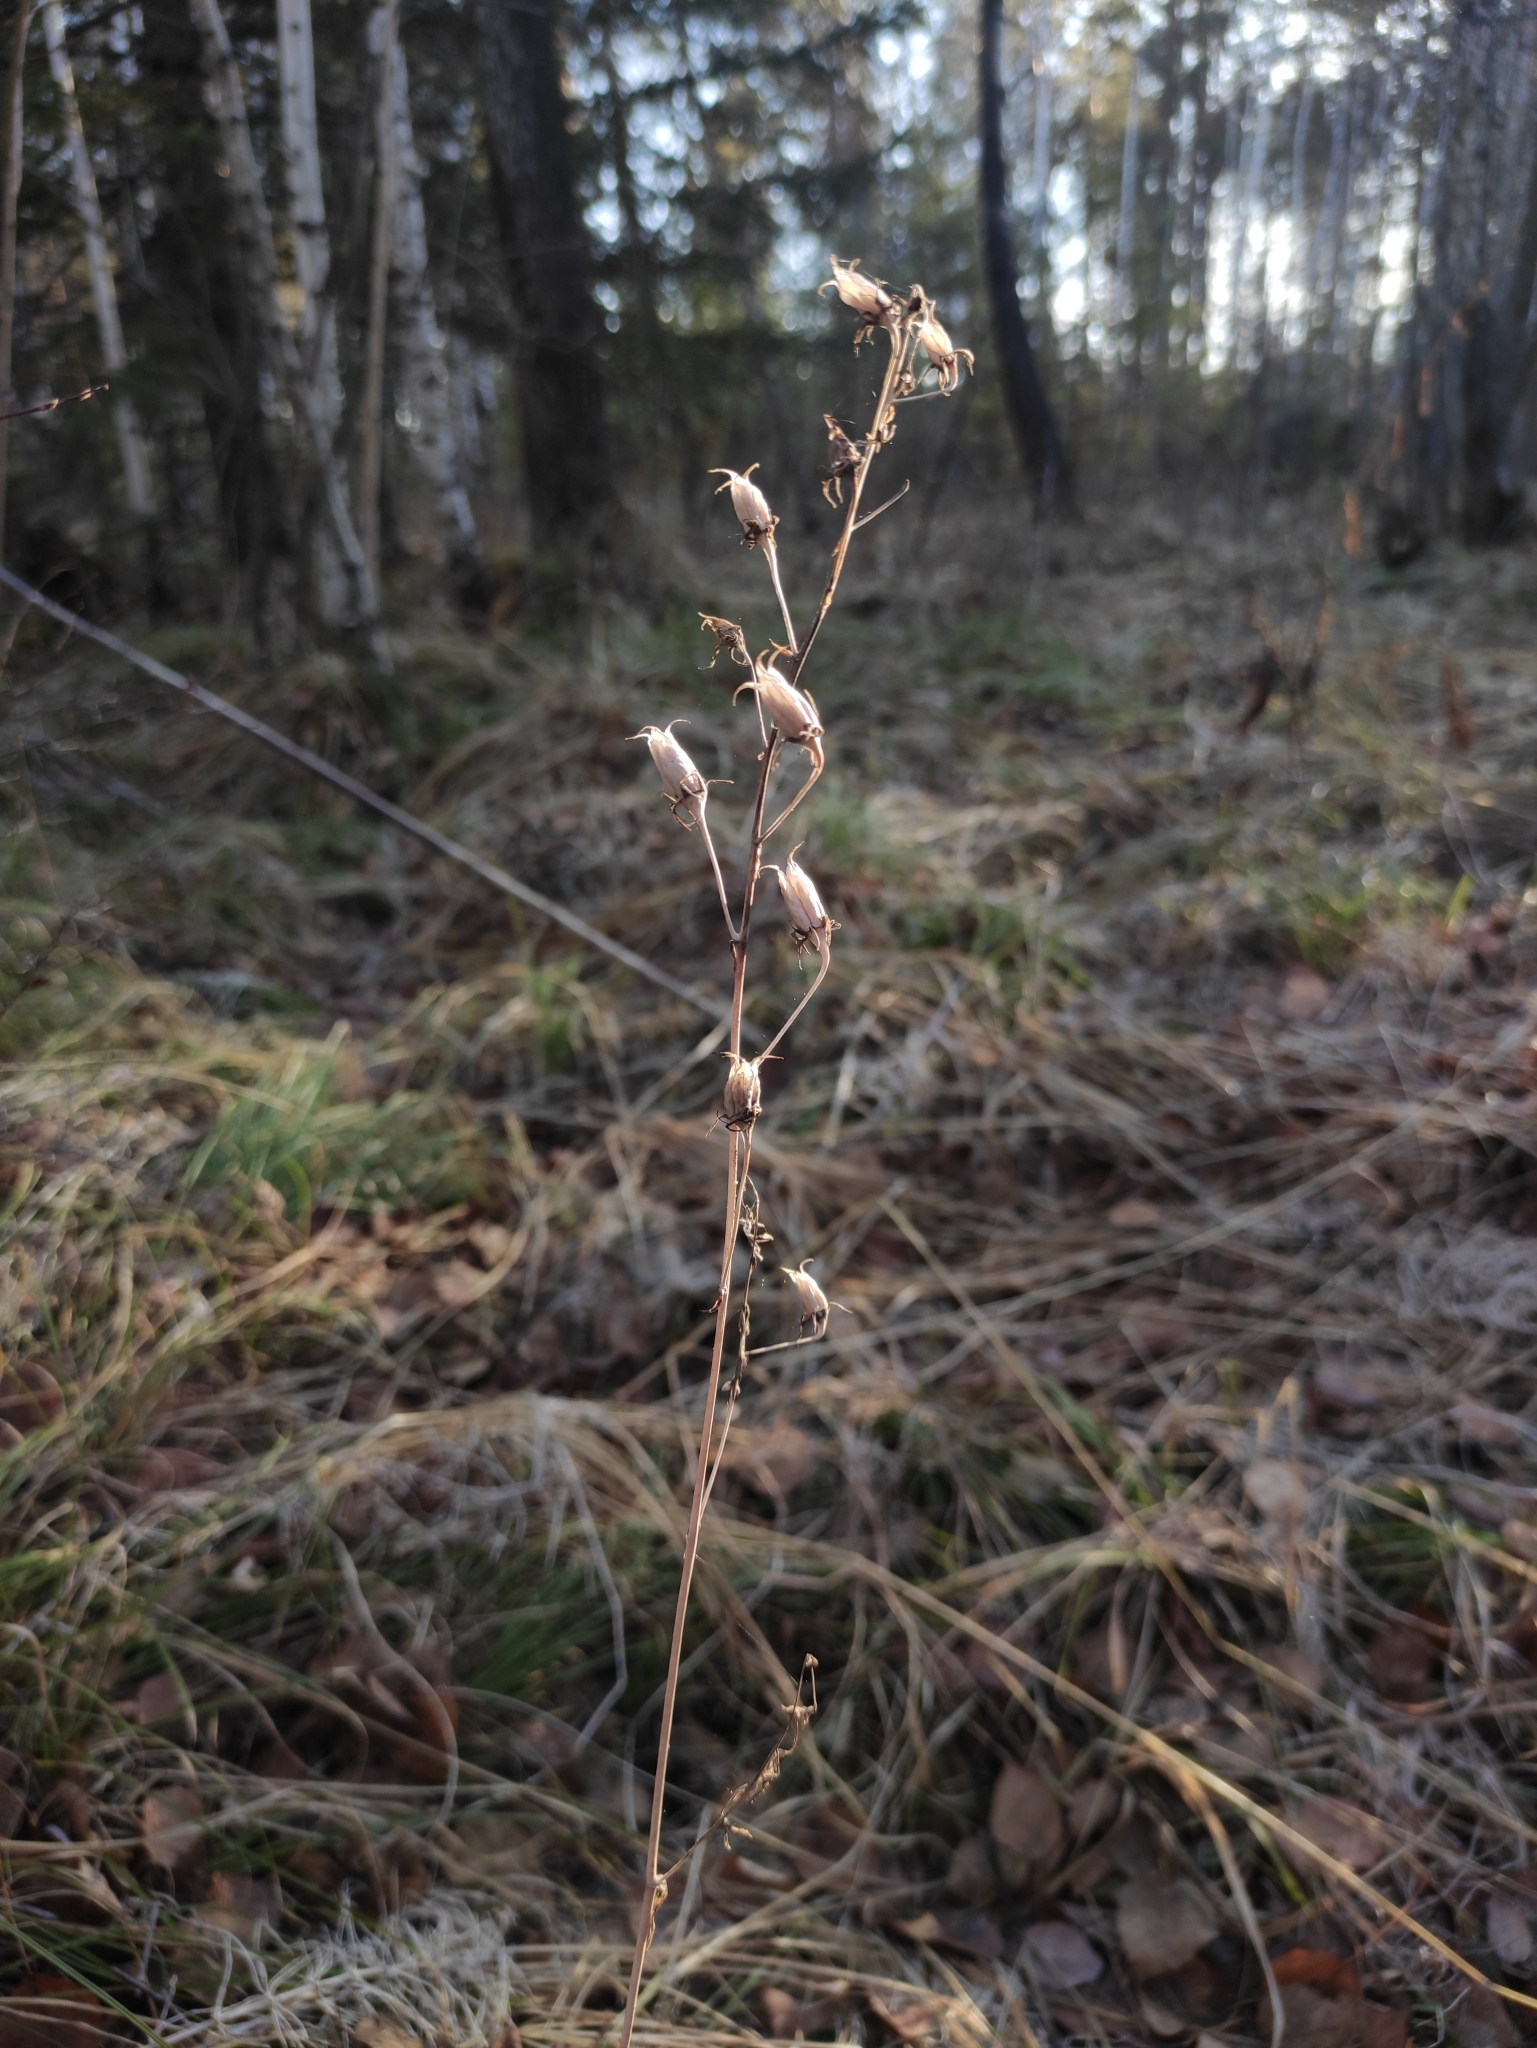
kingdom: Plantae
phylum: Tracheophyta
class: Liliopsida
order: Liliales
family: Melanthiaceae
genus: Anticlea
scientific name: Anticlea sibirica
